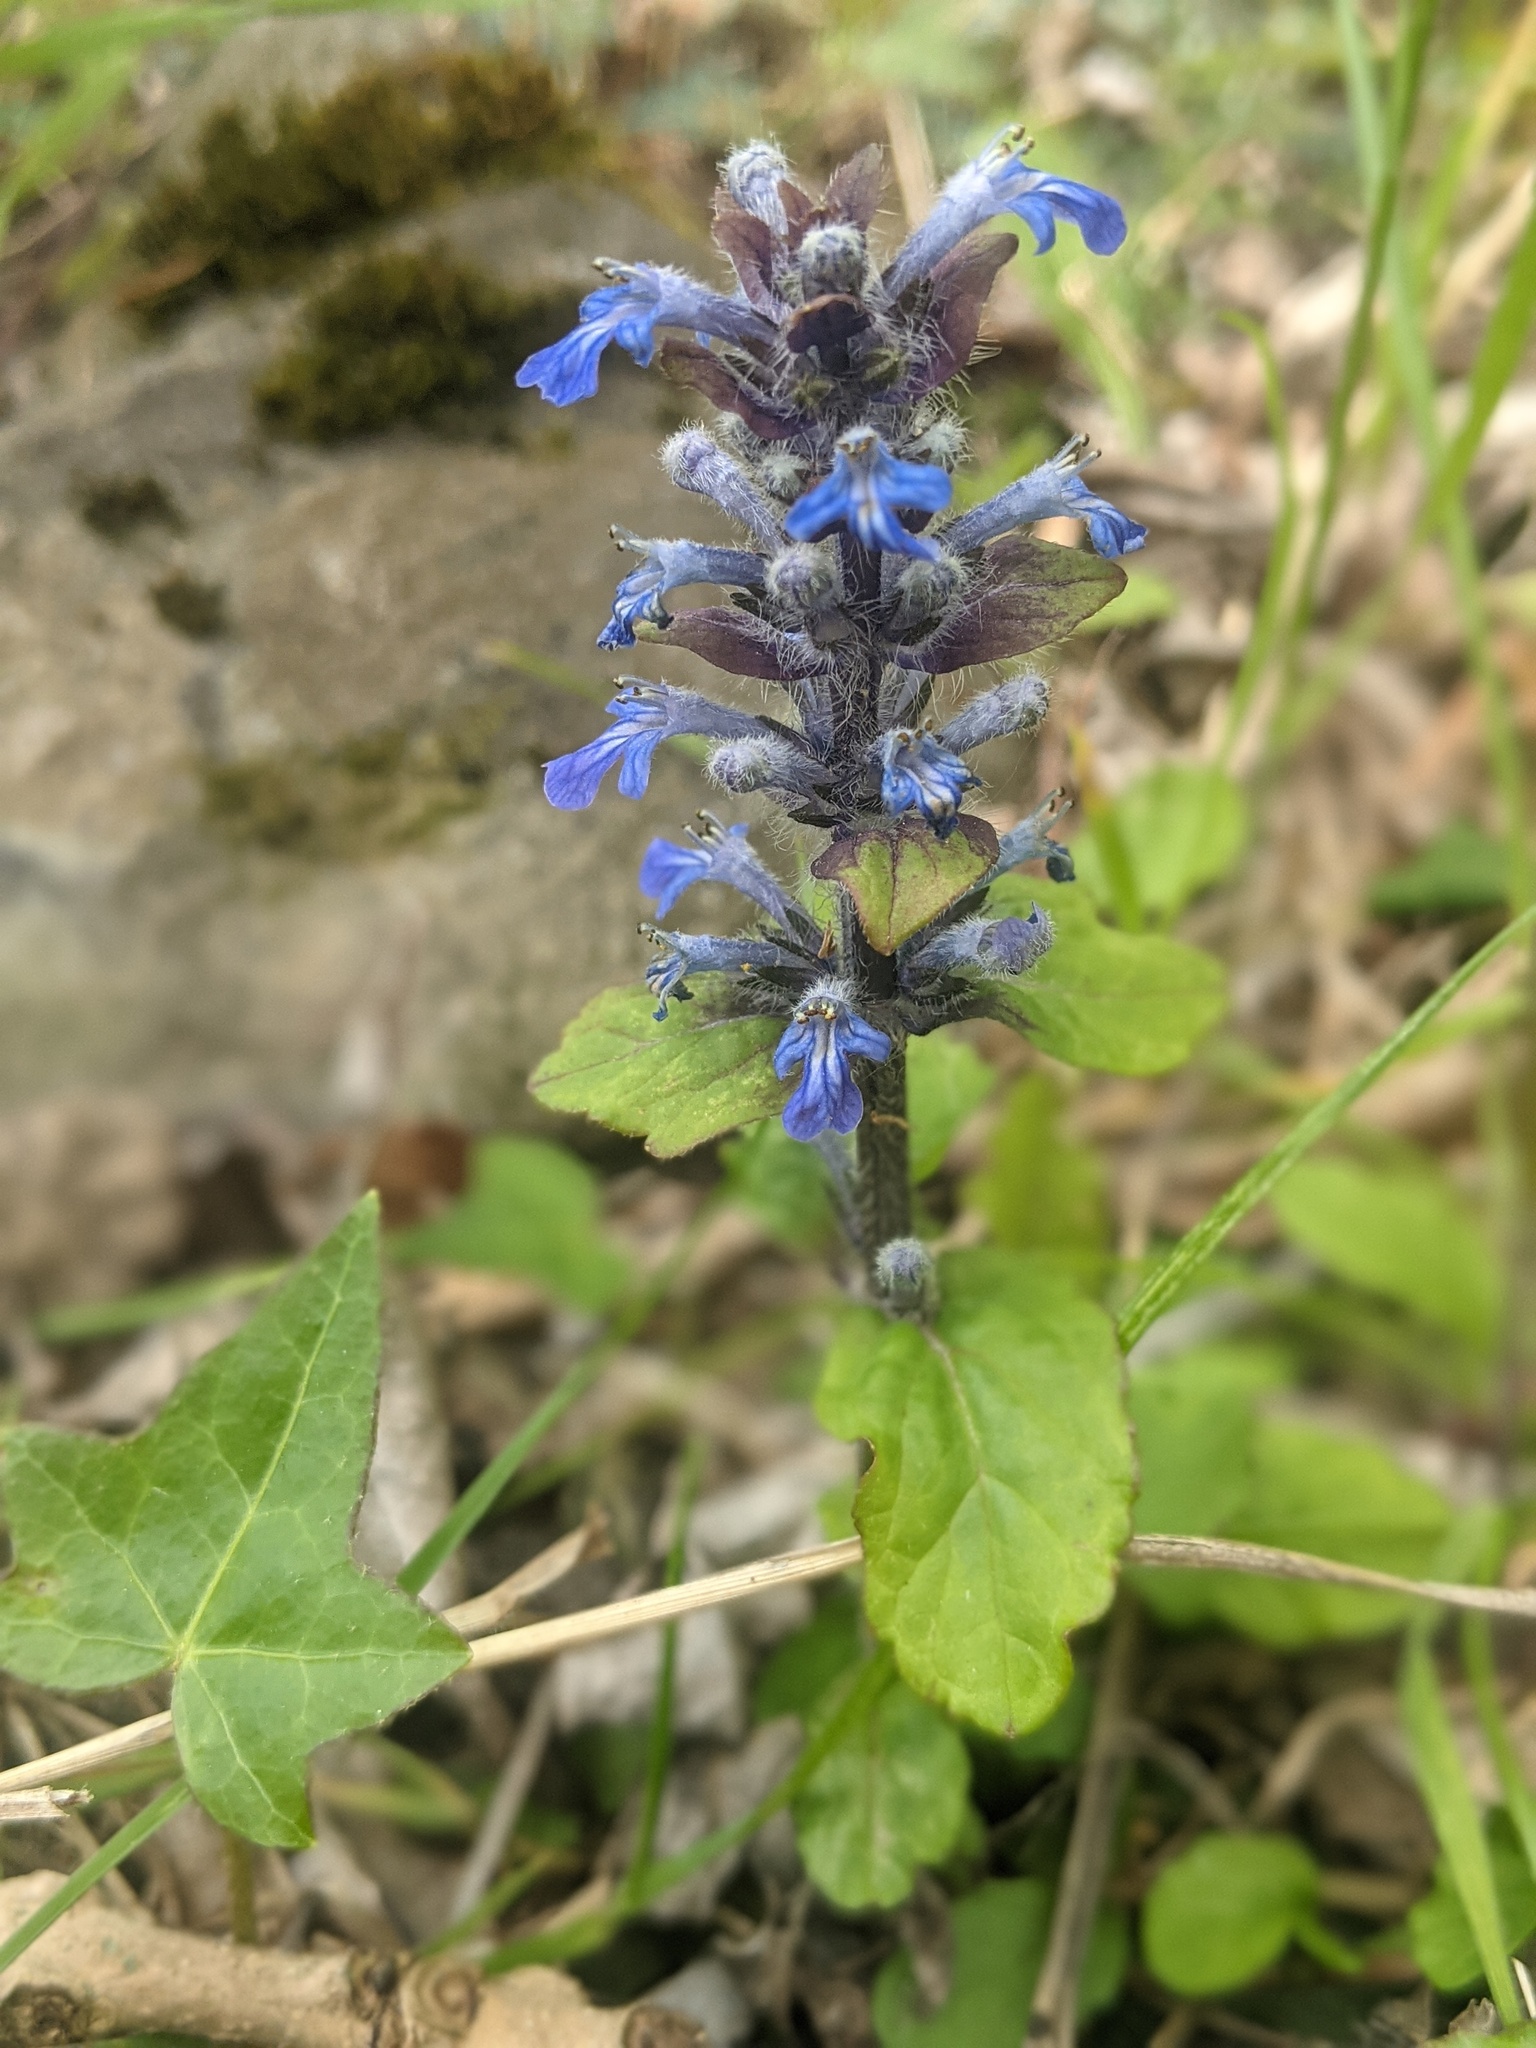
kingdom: Plantae
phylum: Tracheophyta
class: Magnoliopsida
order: Lamiales
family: Lamiaceae
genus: Ajuga
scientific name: Ajuga reptans
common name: Bugle
